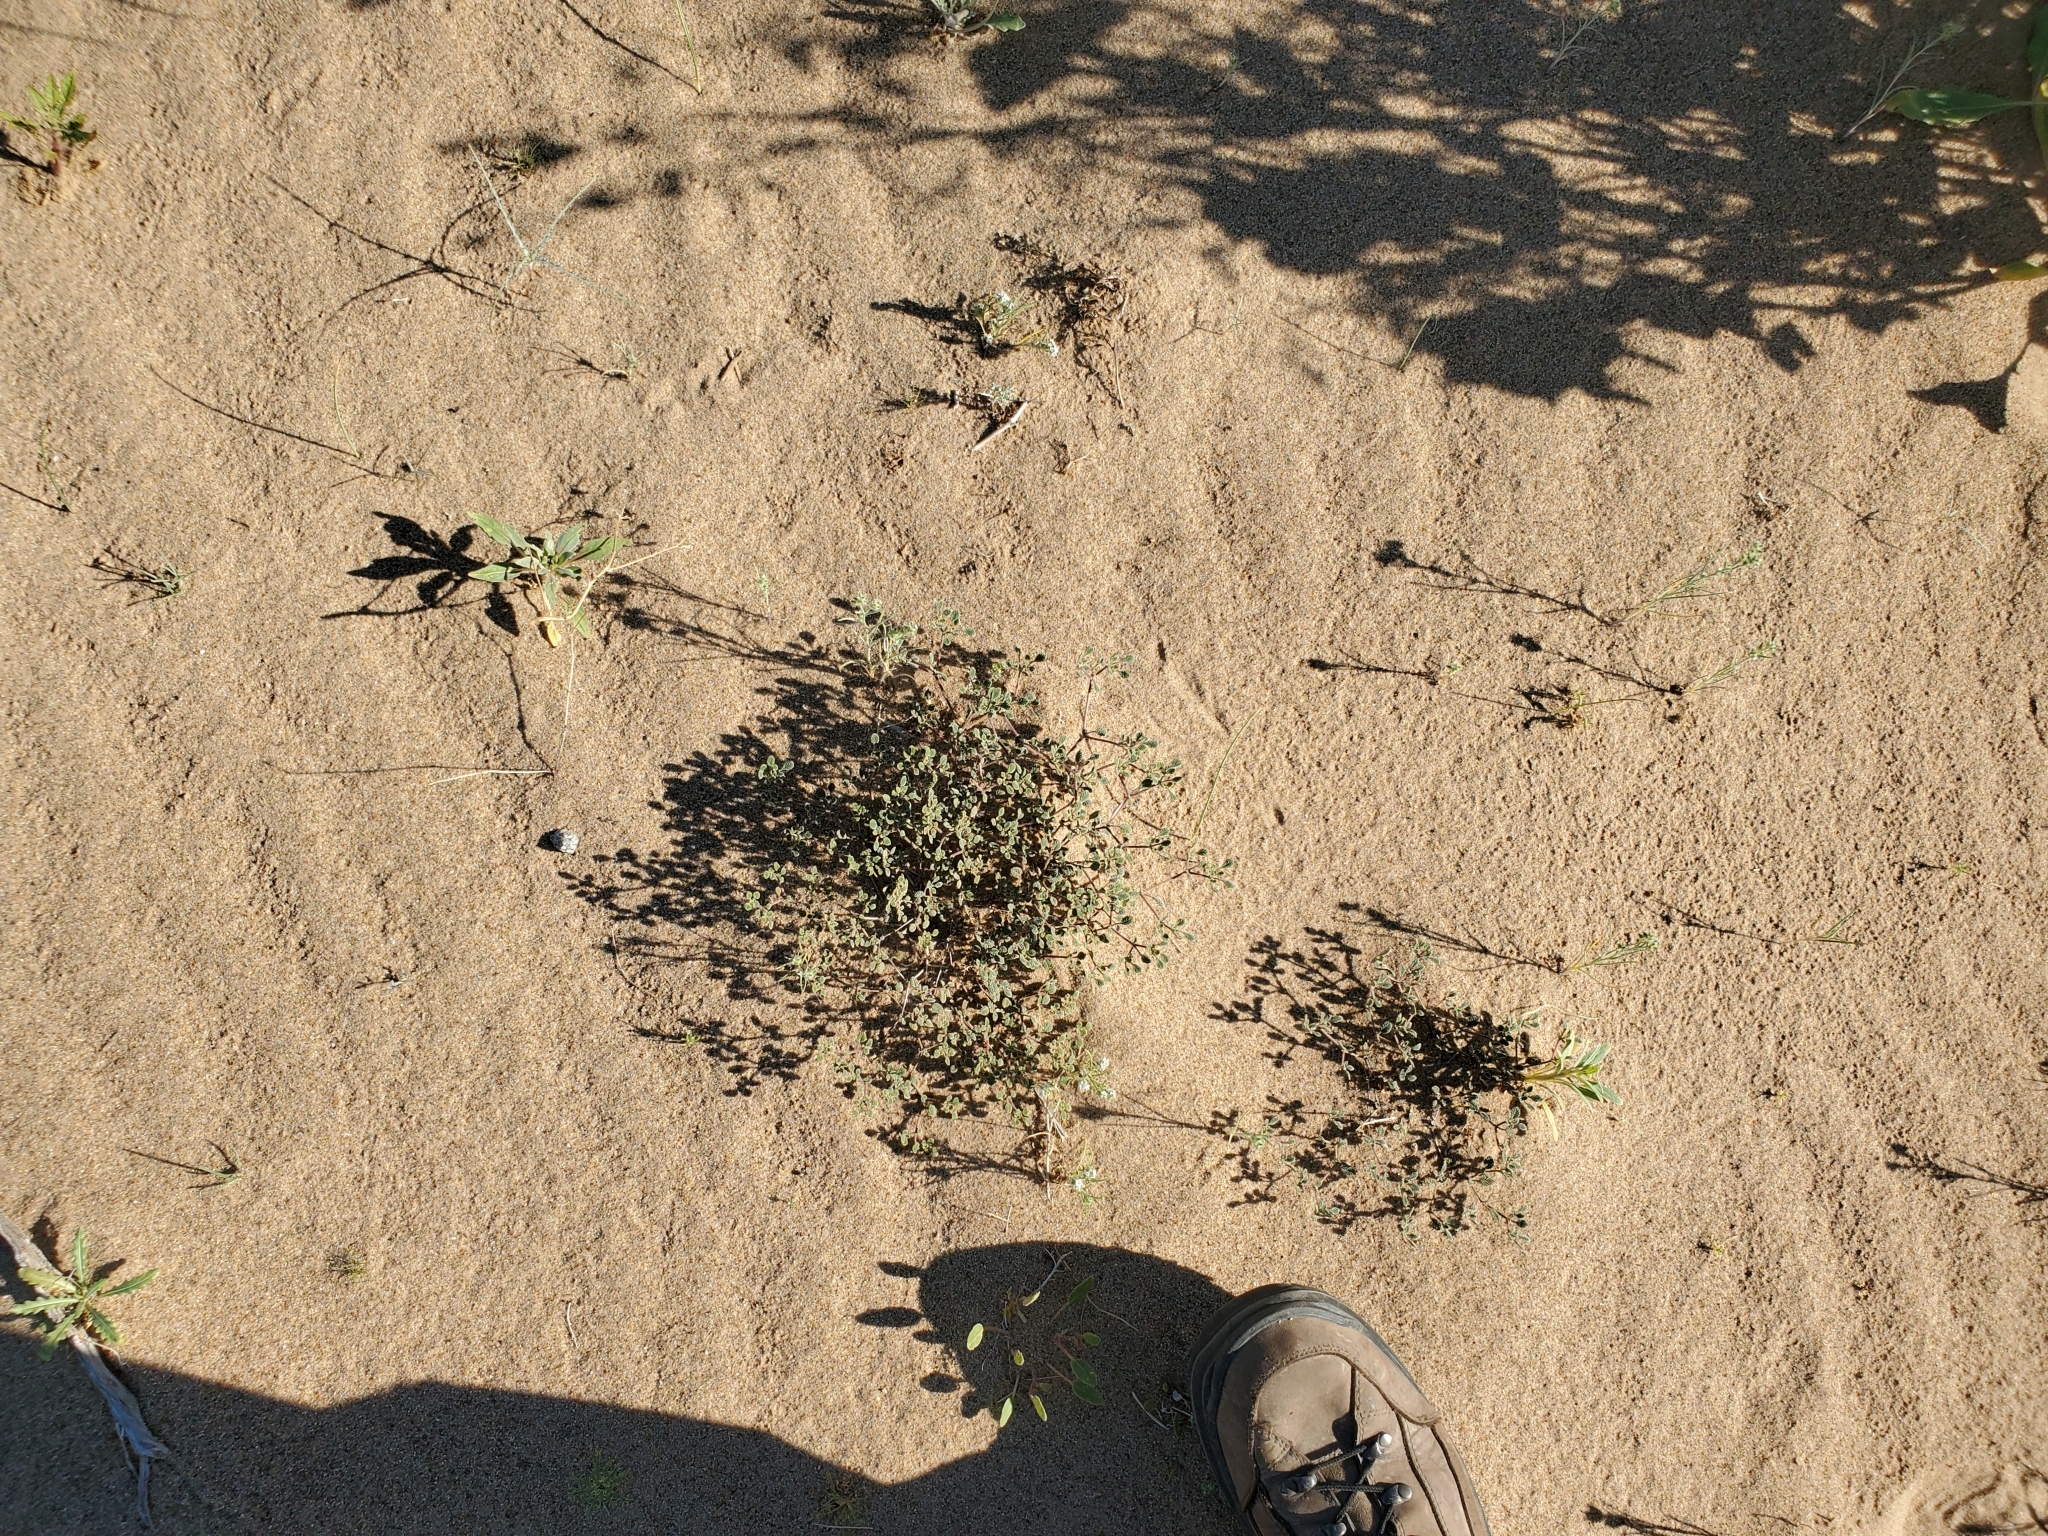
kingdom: Plantae
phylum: Tracheophyta
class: Magnoliopsida
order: Boraginales
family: Ehretiaceae
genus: Tiquilia
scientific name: Tiquilia plicata
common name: Fan-leaf tiquilia
